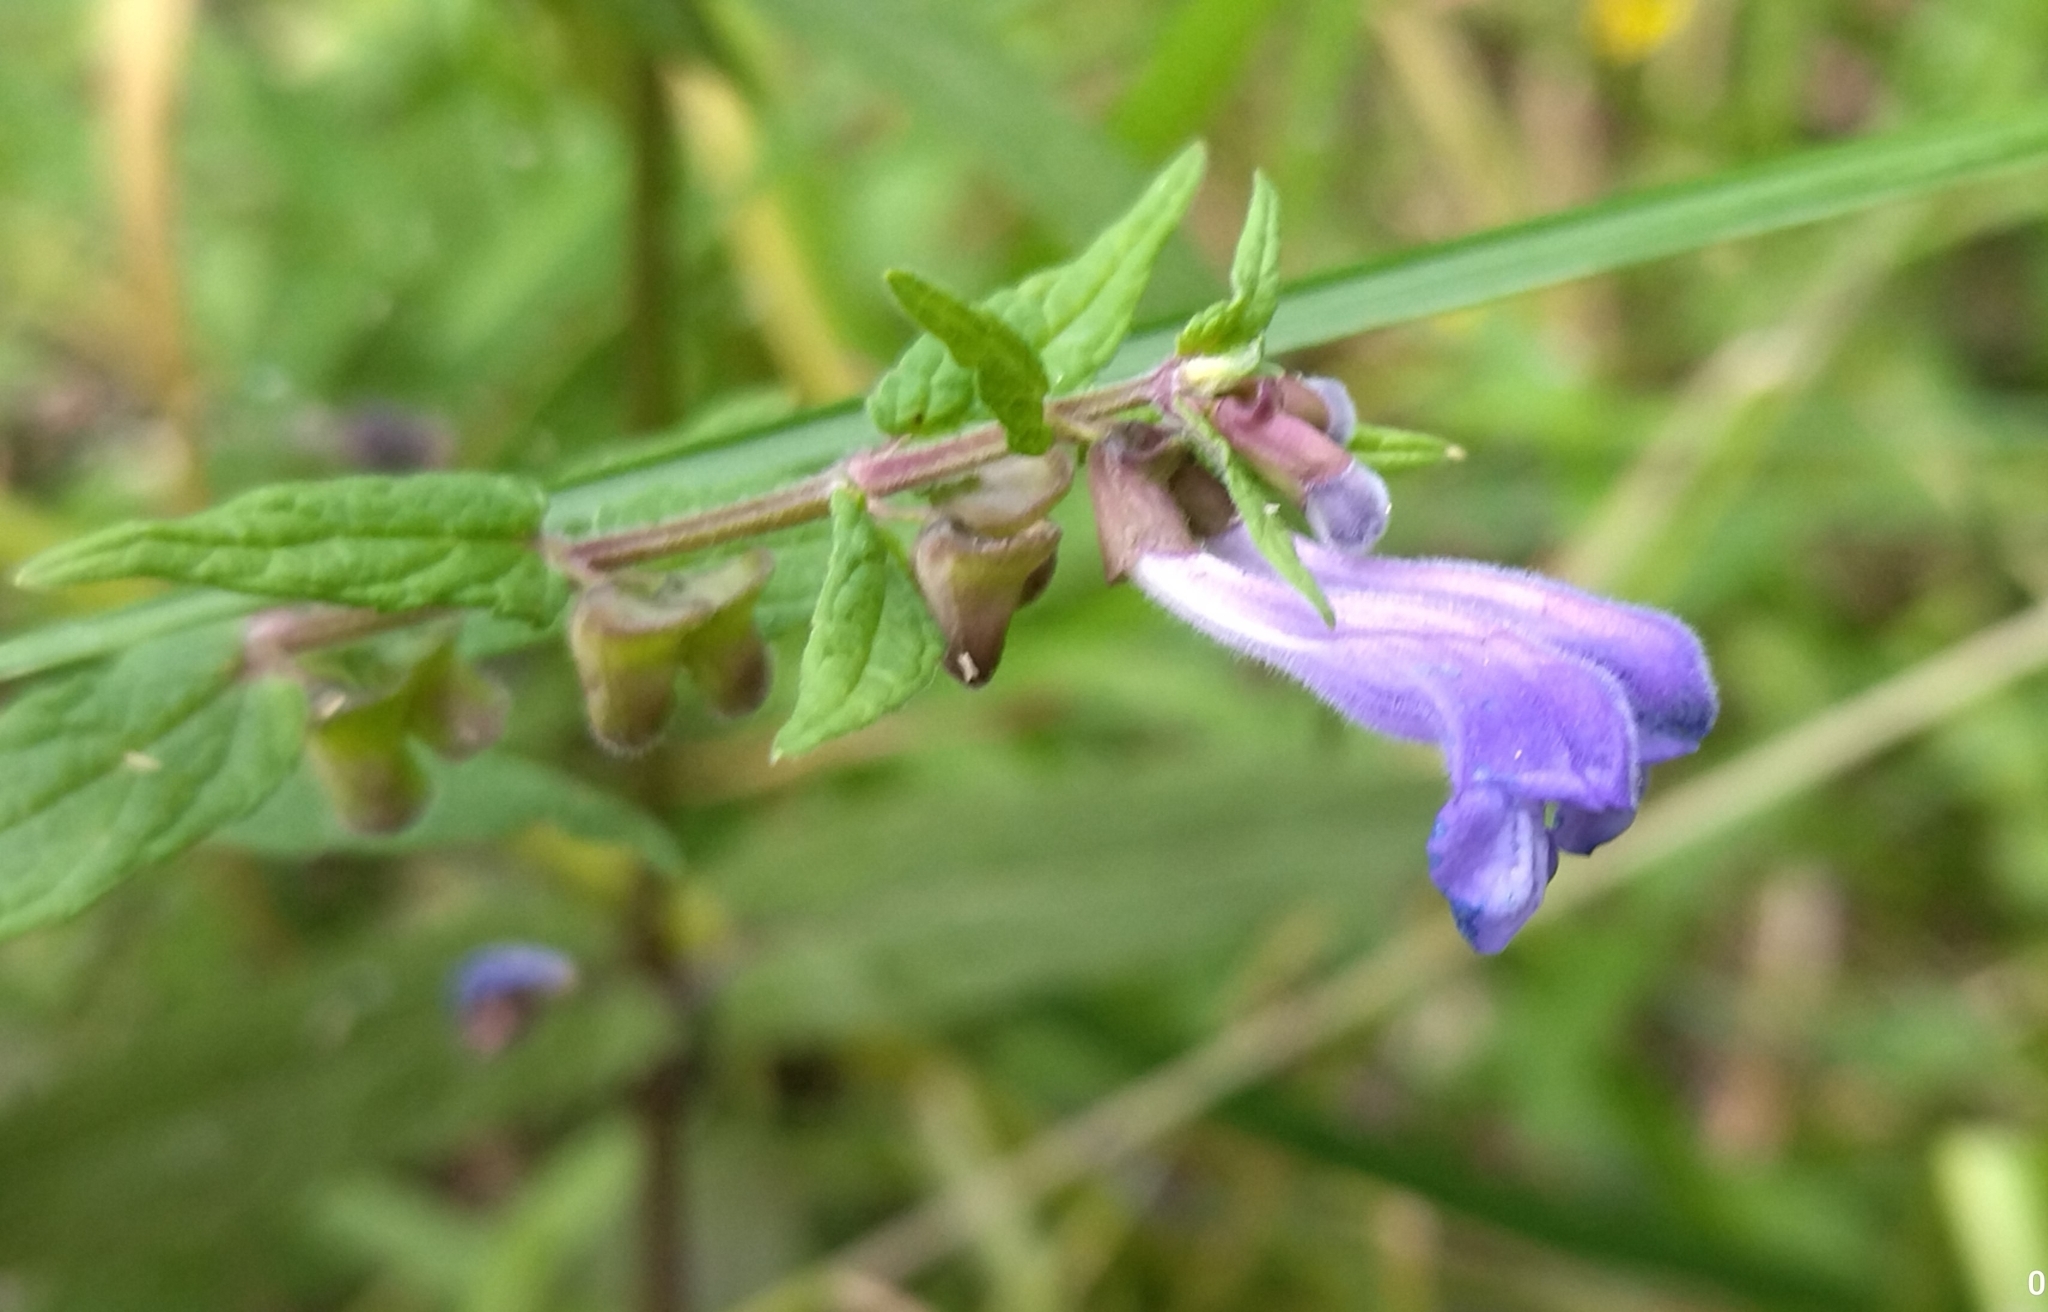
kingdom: Plantae
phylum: Tracheophyta
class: Magnoliopsida
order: Lamiales
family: Lamiaceae
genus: Scutellaria
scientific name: Scutellaria galericulata
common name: Skullcap
